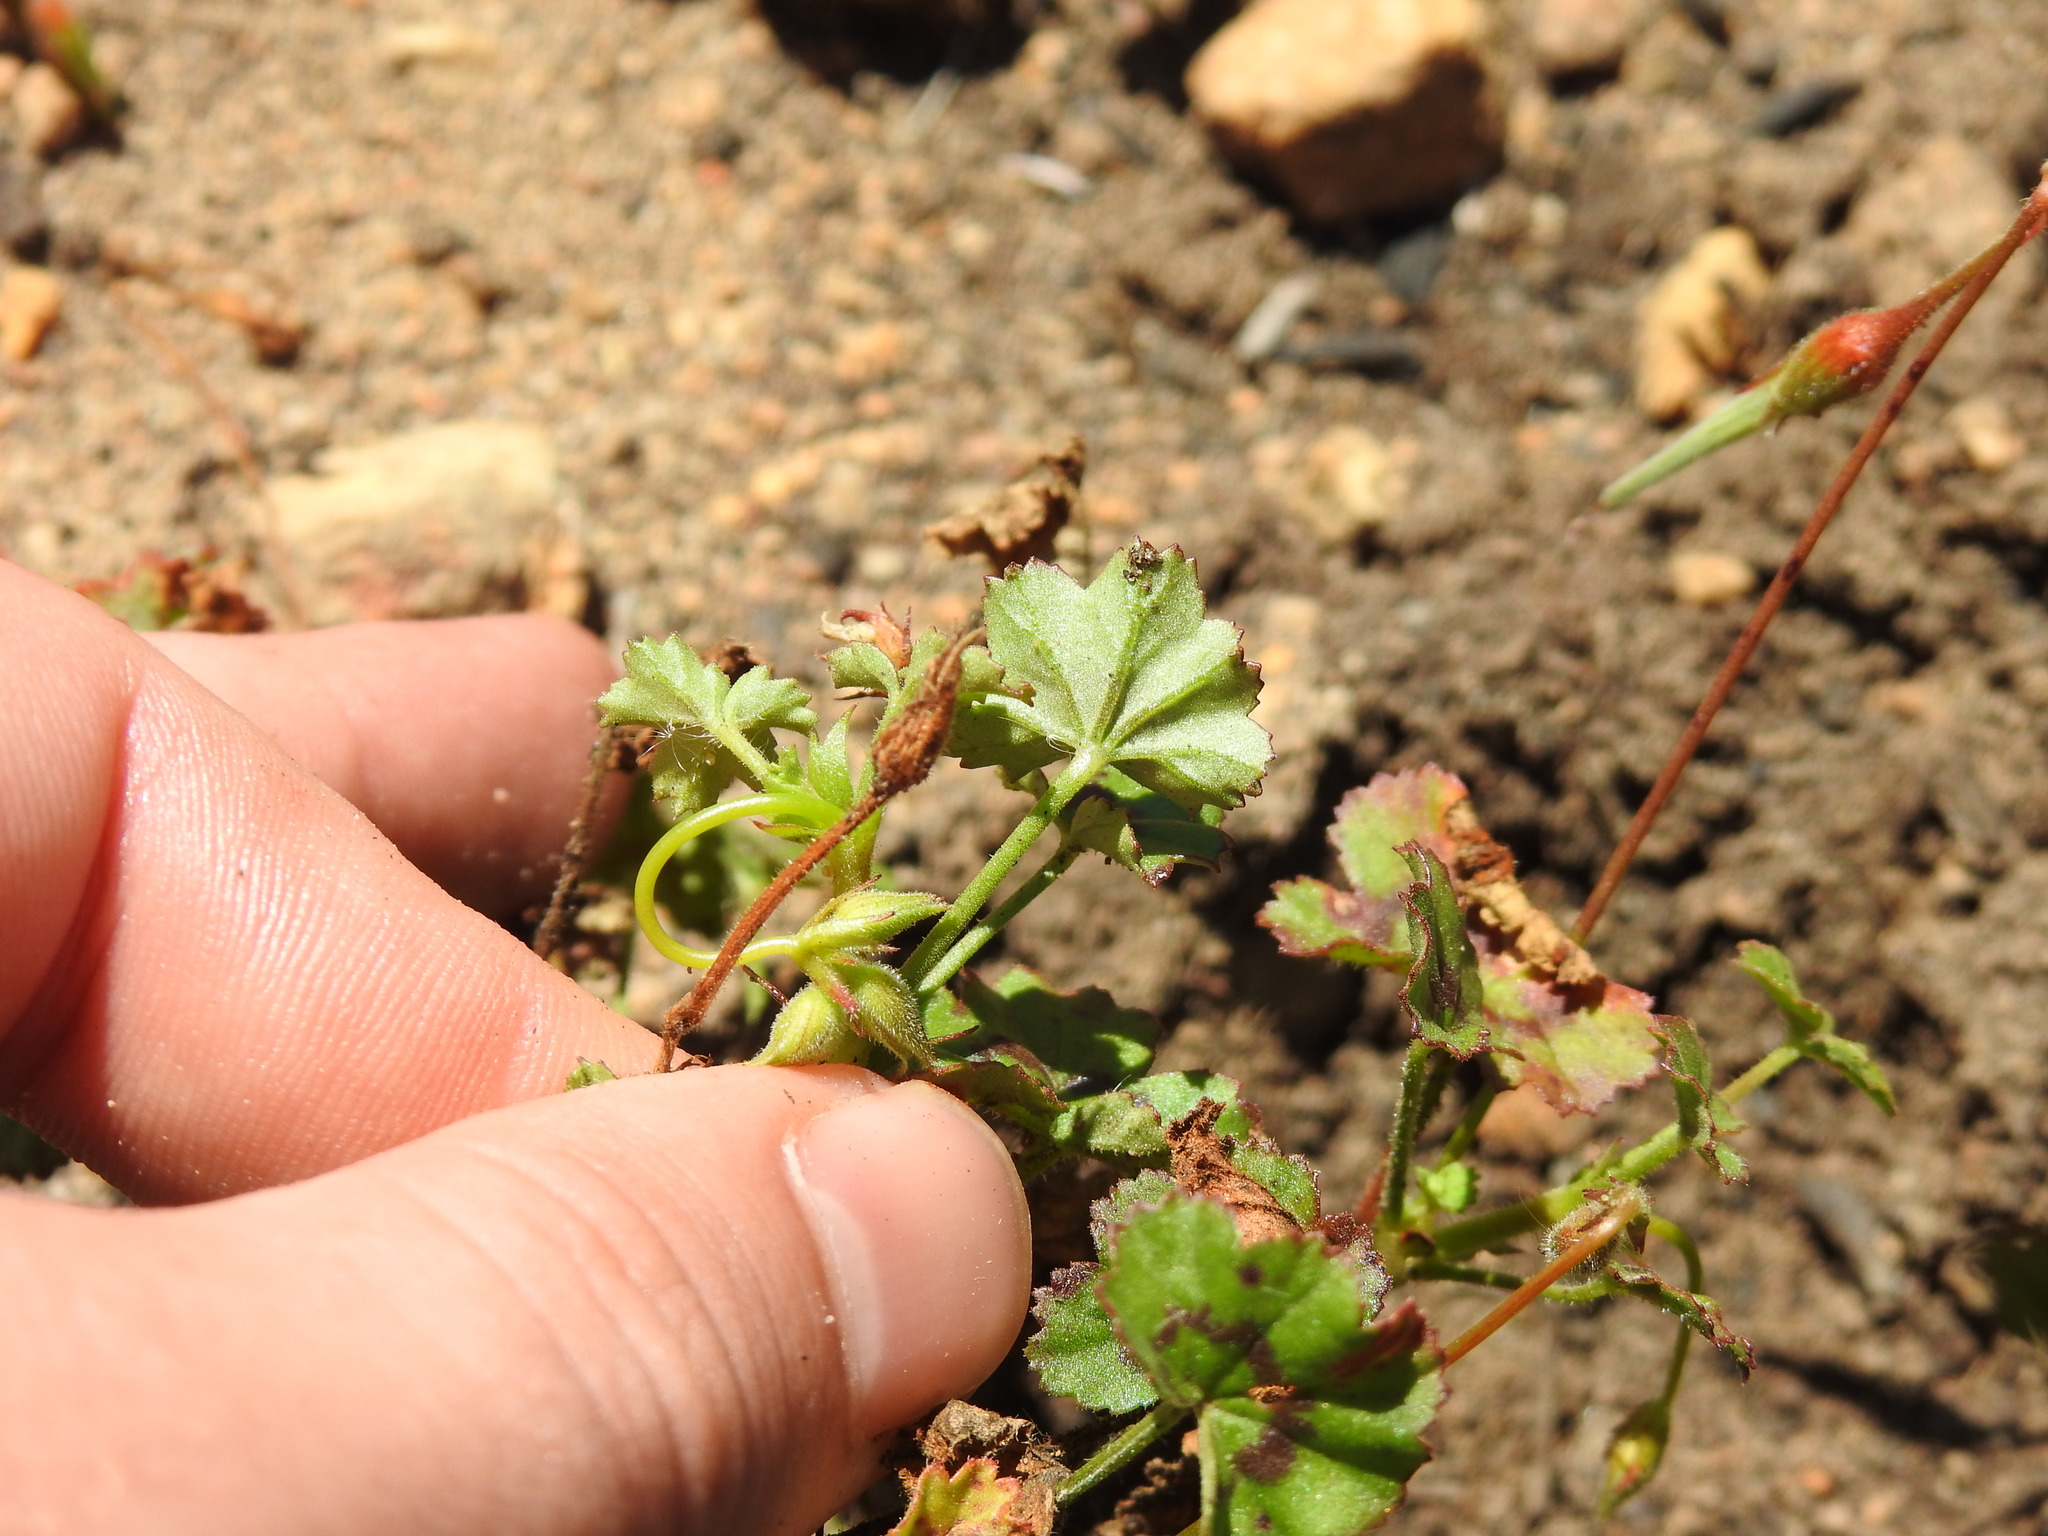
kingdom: Plantae
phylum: Tracheophyta
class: Magnoliopsida
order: Geraniales
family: Geraniaceae
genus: Pelargonium
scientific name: Pelargonium elongatum
